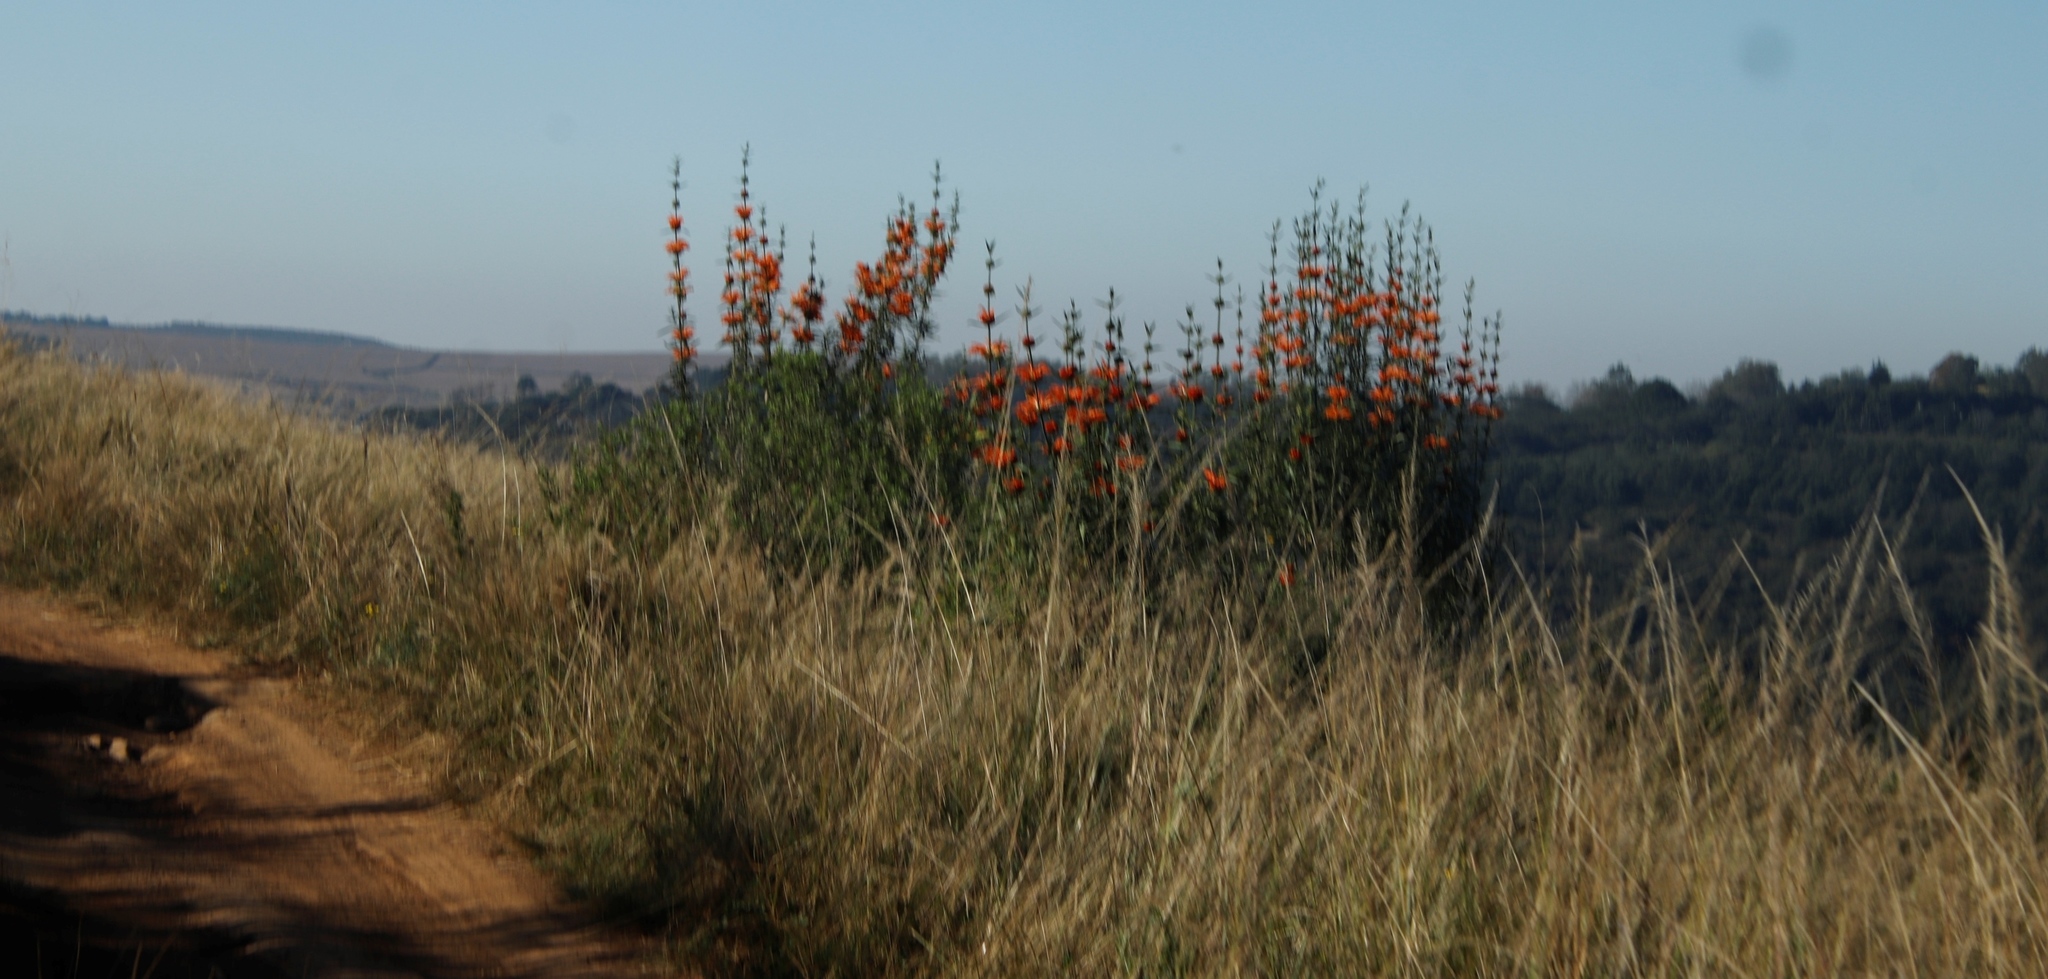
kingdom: Plantae
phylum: Tracheophyta
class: Magnoliopsida
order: Lamiales
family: Lamiaceae
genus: Leonotis
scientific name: Leonotis leonurus
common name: Lion's ear
